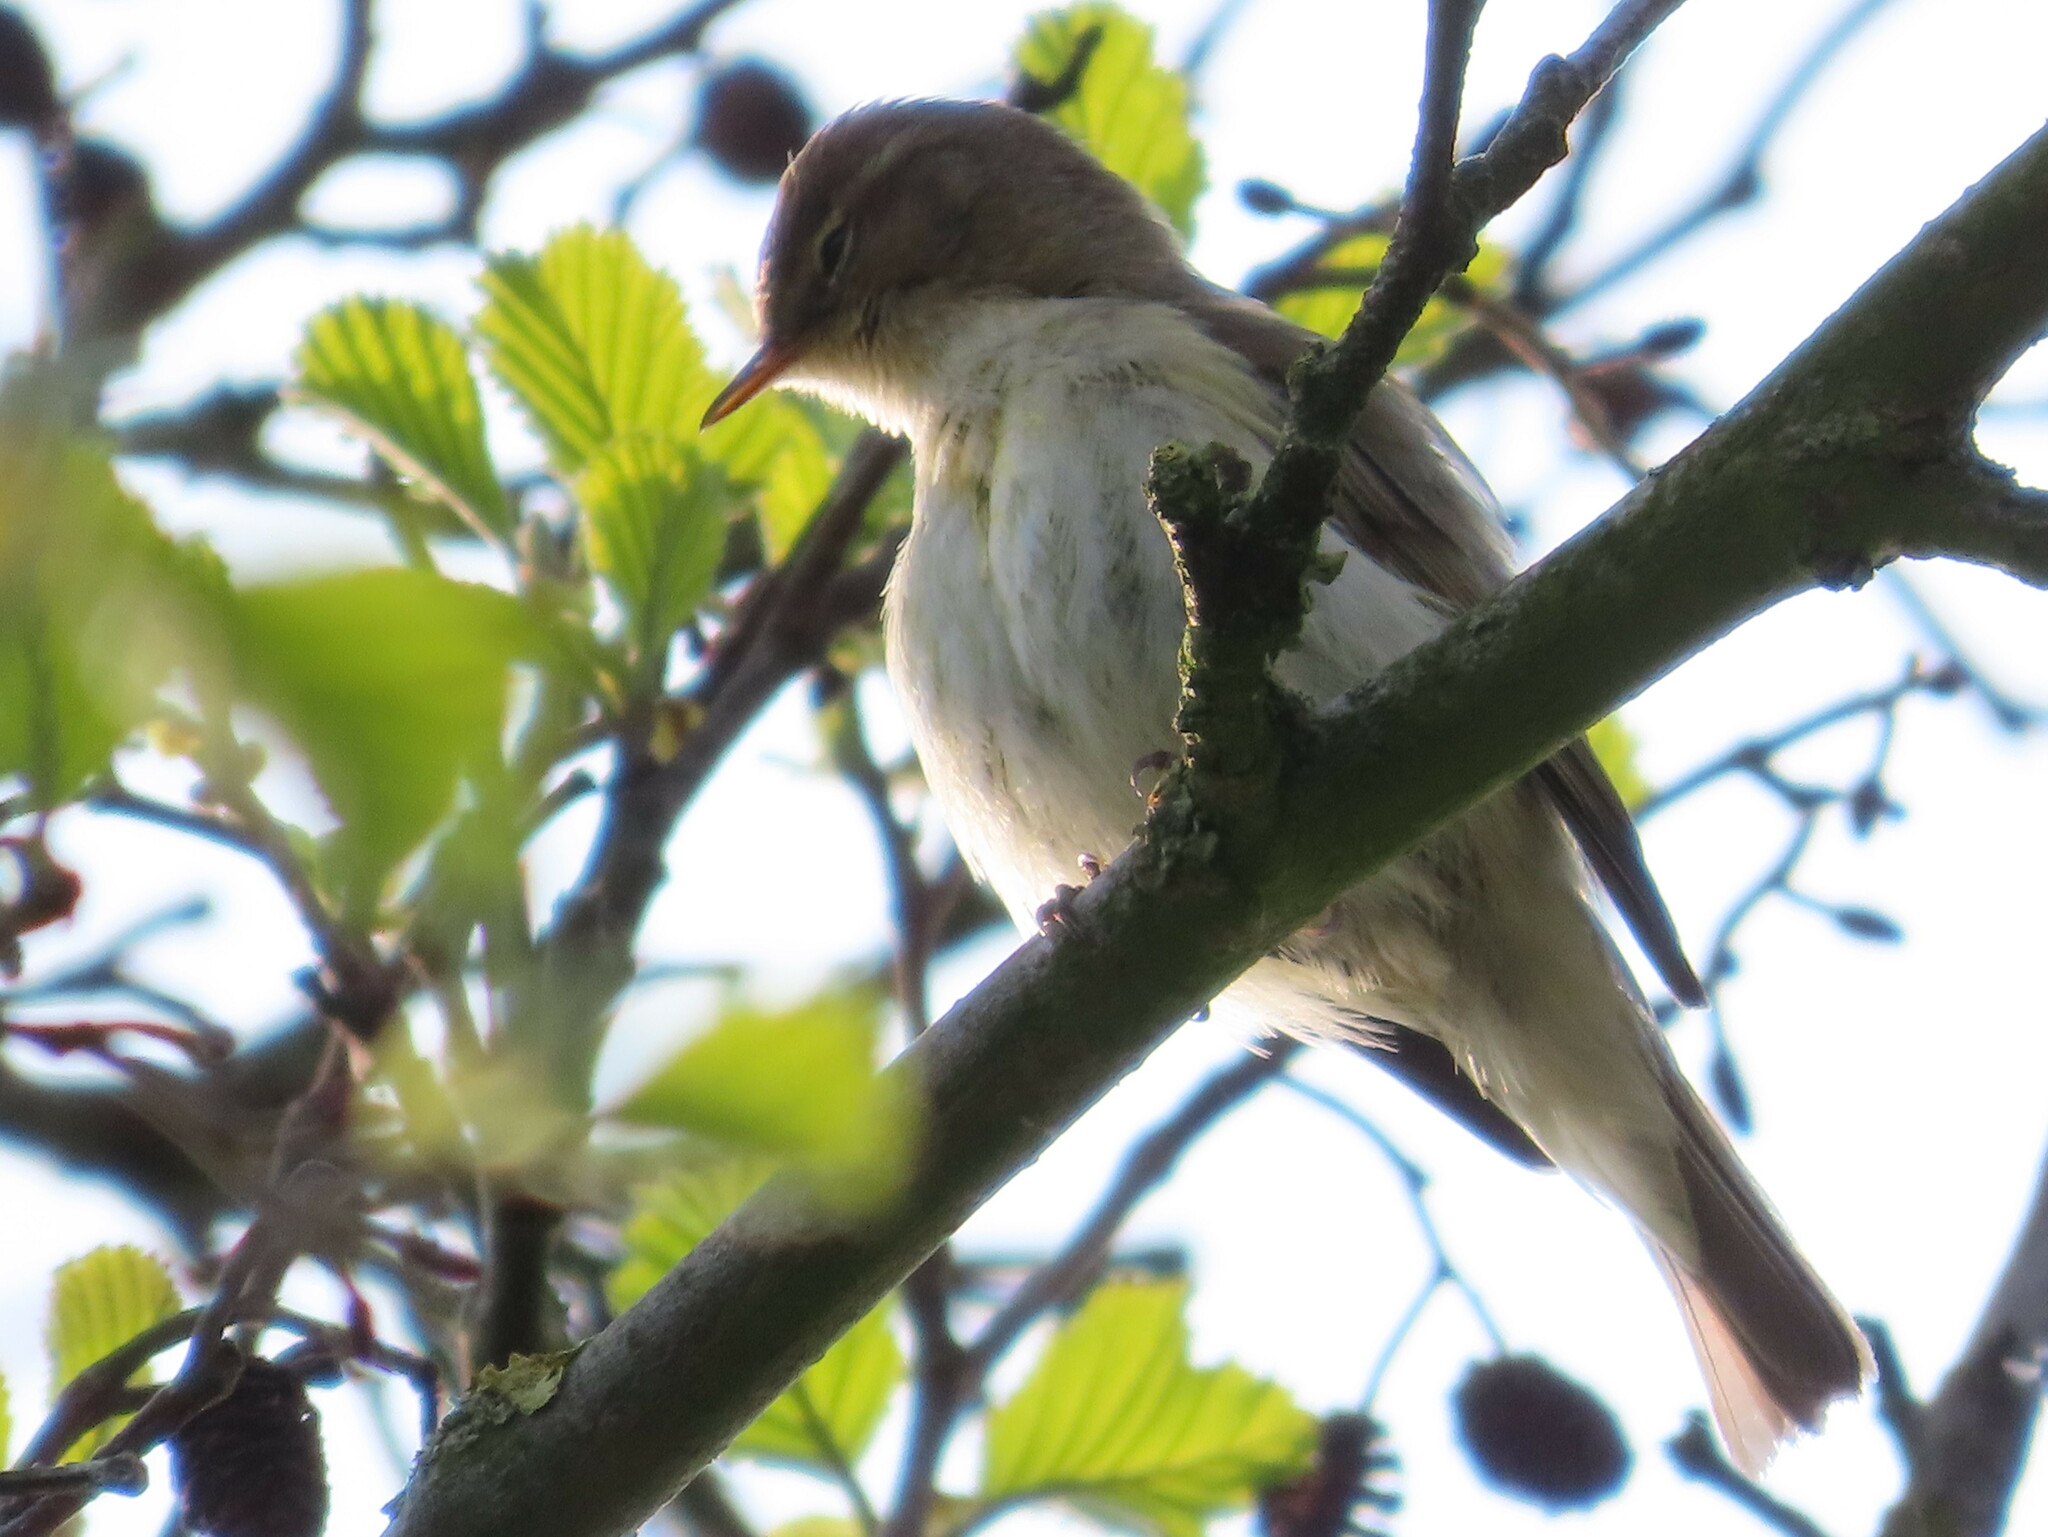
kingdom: Animalia
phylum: Chordata
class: Aves
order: Passeriformes
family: Phylloscopidae
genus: Phylloscopus
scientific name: Phylloscopus collybita
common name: Common chiffchaff
